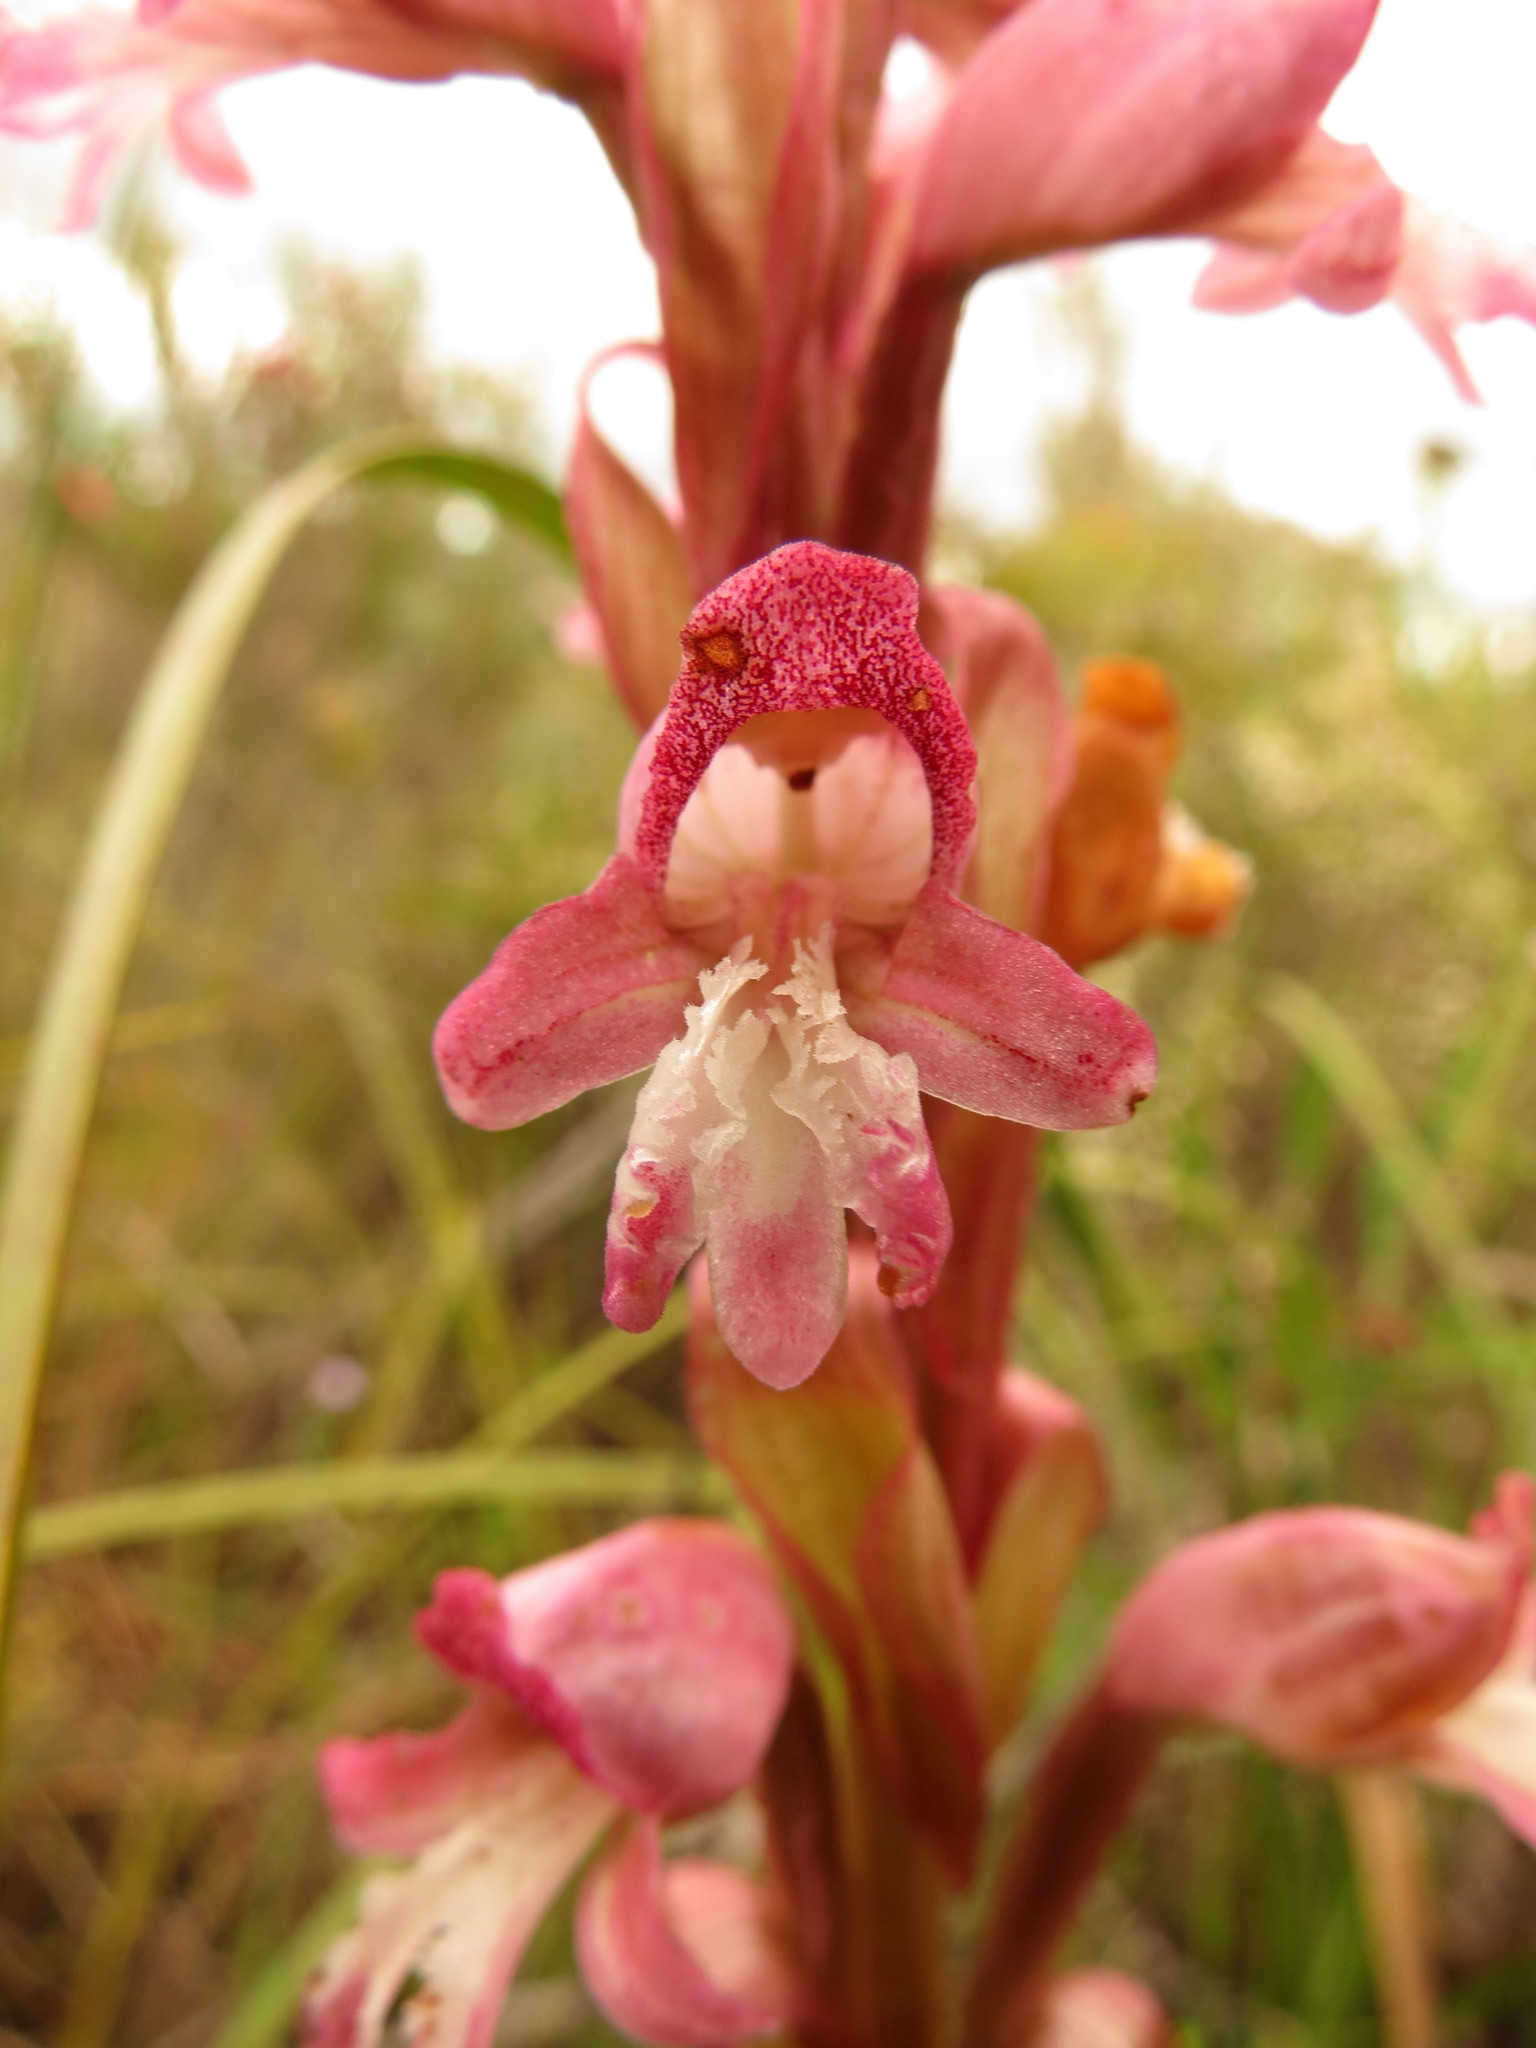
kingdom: Plantae
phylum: Tracheophyta
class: Liliopsida
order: Asparagales
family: Orchidaceae
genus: Satyrium
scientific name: Satyrium muticum
